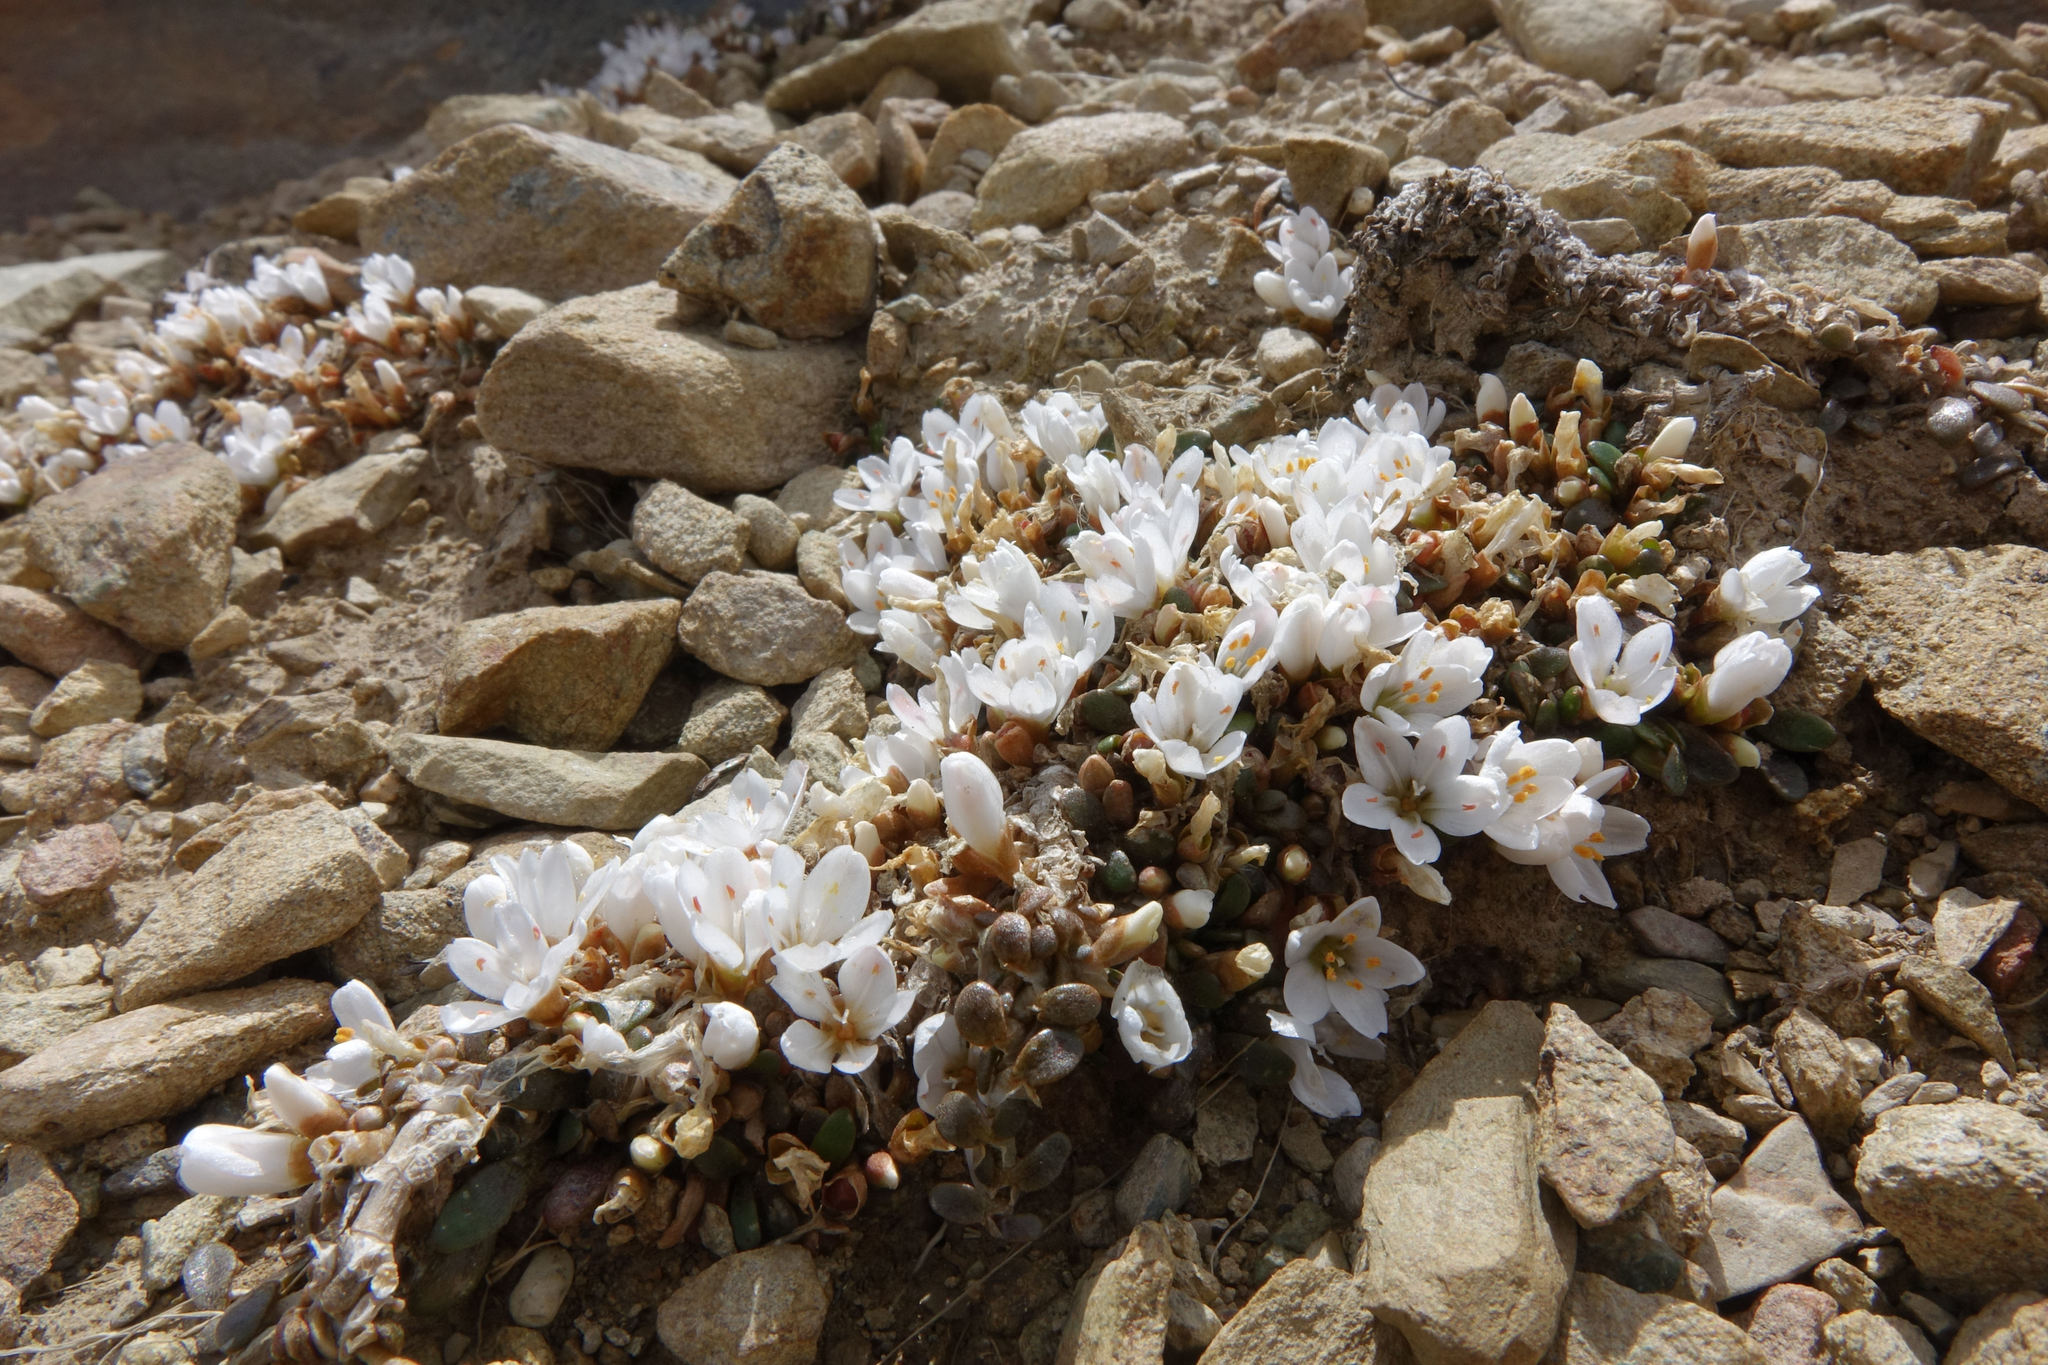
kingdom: Plantae
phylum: Tracheophyta
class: Magnoliopsida
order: Caryophyllales
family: Montiaceae
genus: Montia
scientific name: Montia sessiliflora
